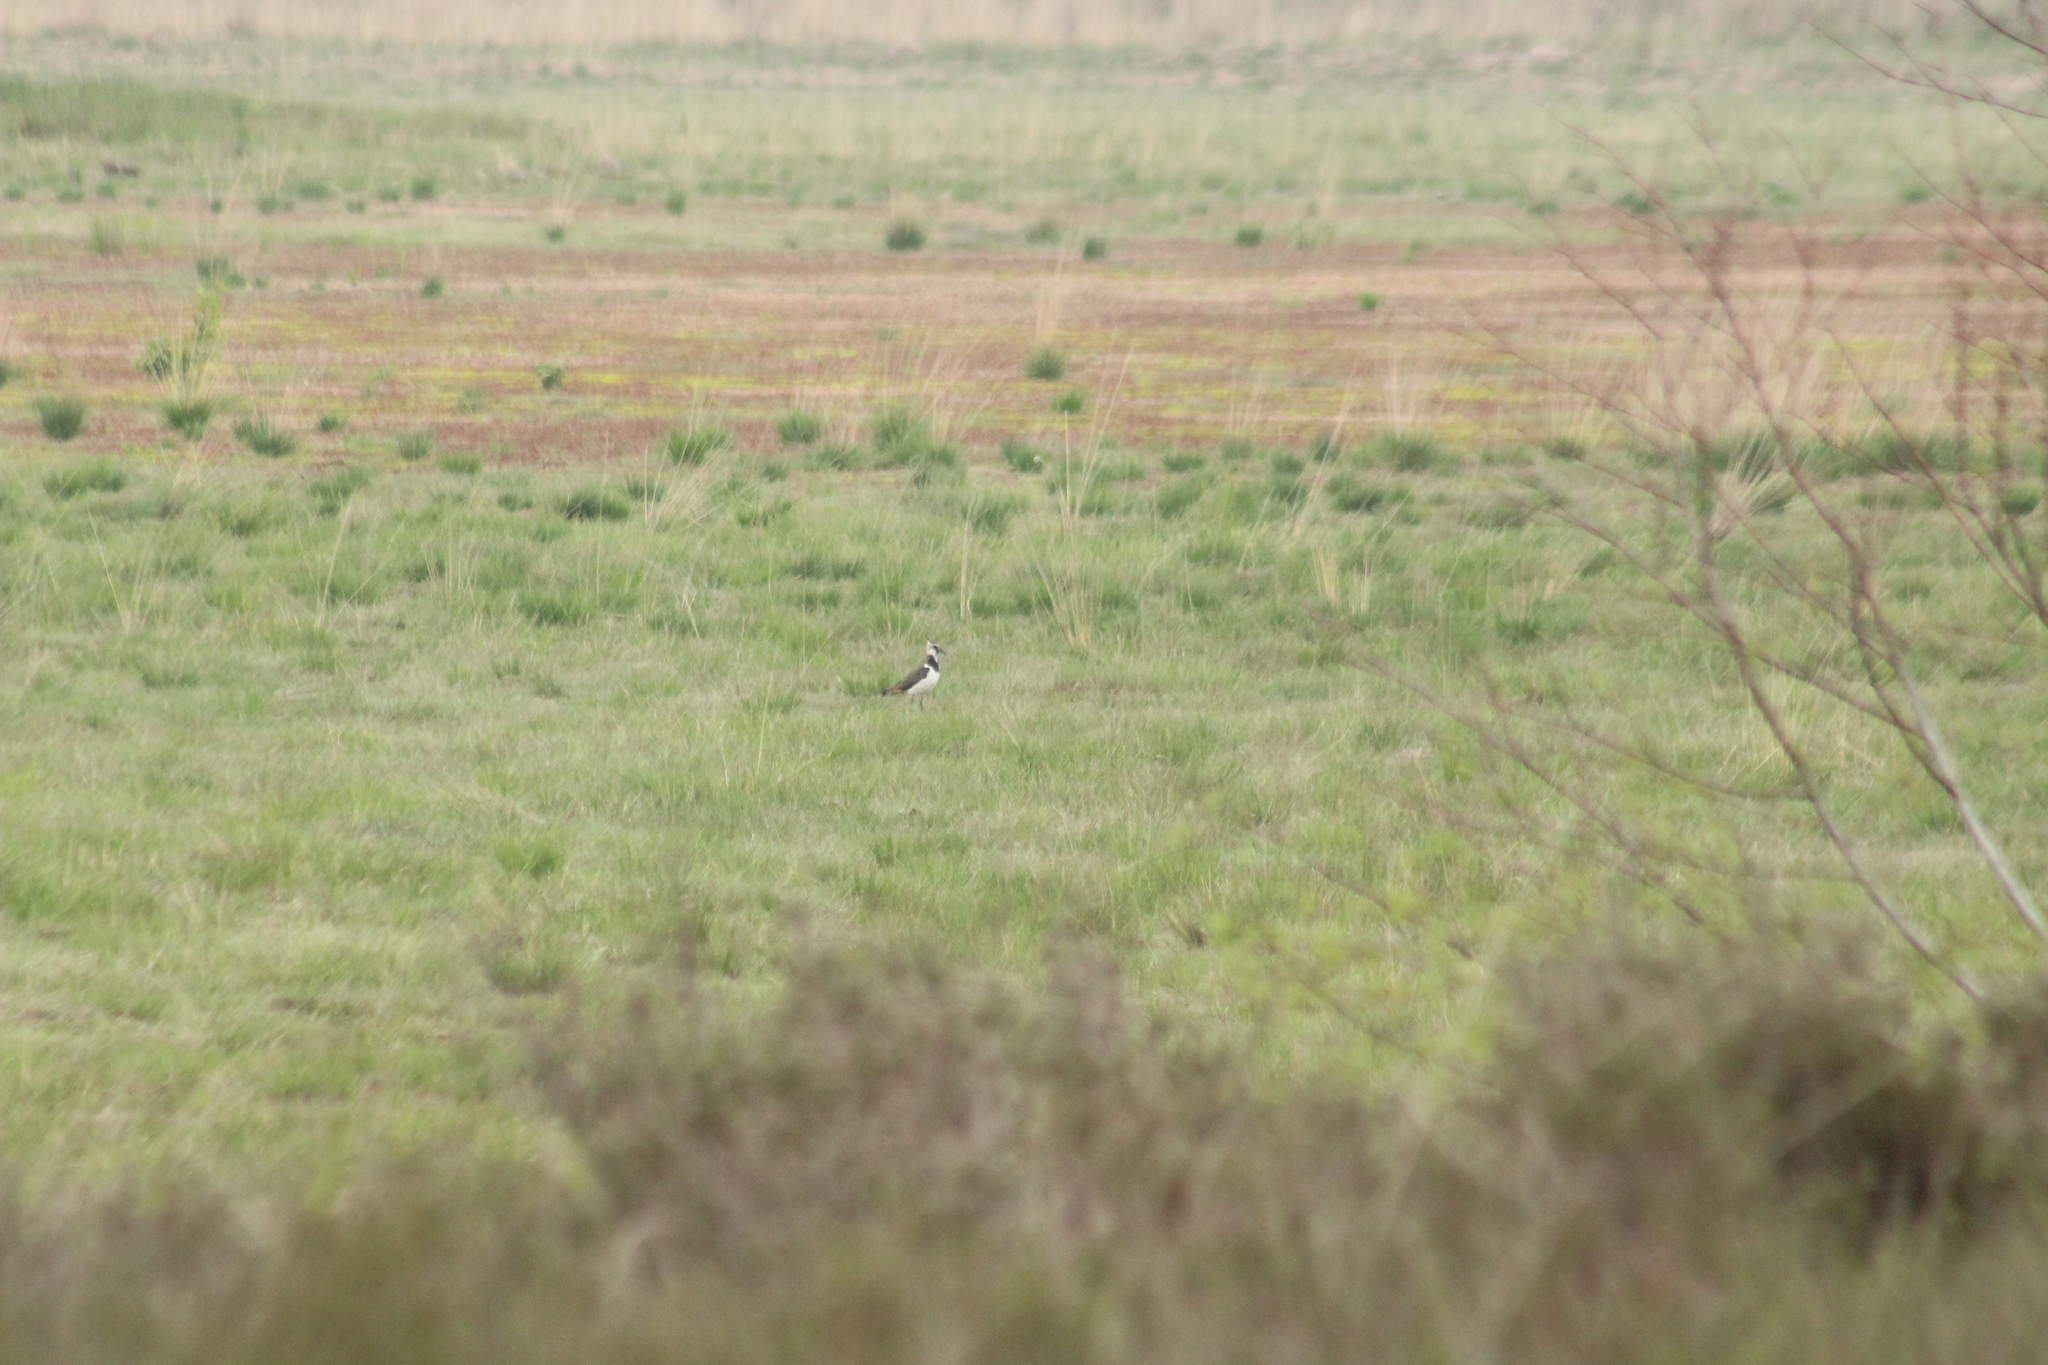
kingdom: Animalia
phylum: Chordata
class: Aves
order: Charadriiformes
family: Charadriidae
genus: Vanellus
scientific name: Vanellus vanellus
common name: Northern lapwing
